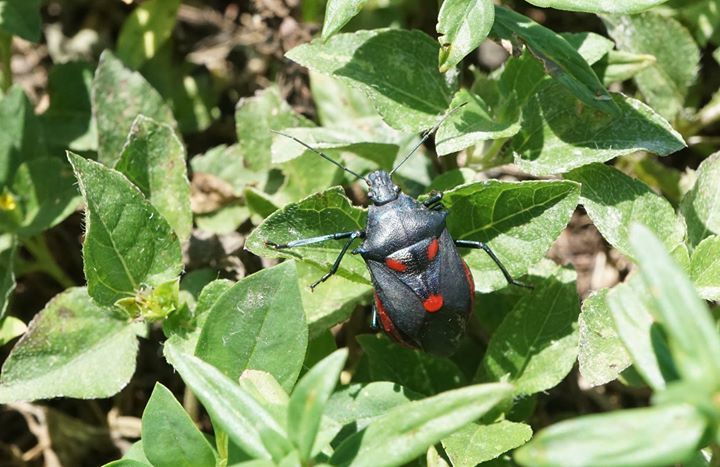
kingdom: Animalia
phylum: Arthropoda
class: Insecta
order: Hemiptera
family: Pentatomidae
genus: Euthyrhynchus
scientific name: Euthyrhynchus floridanus
